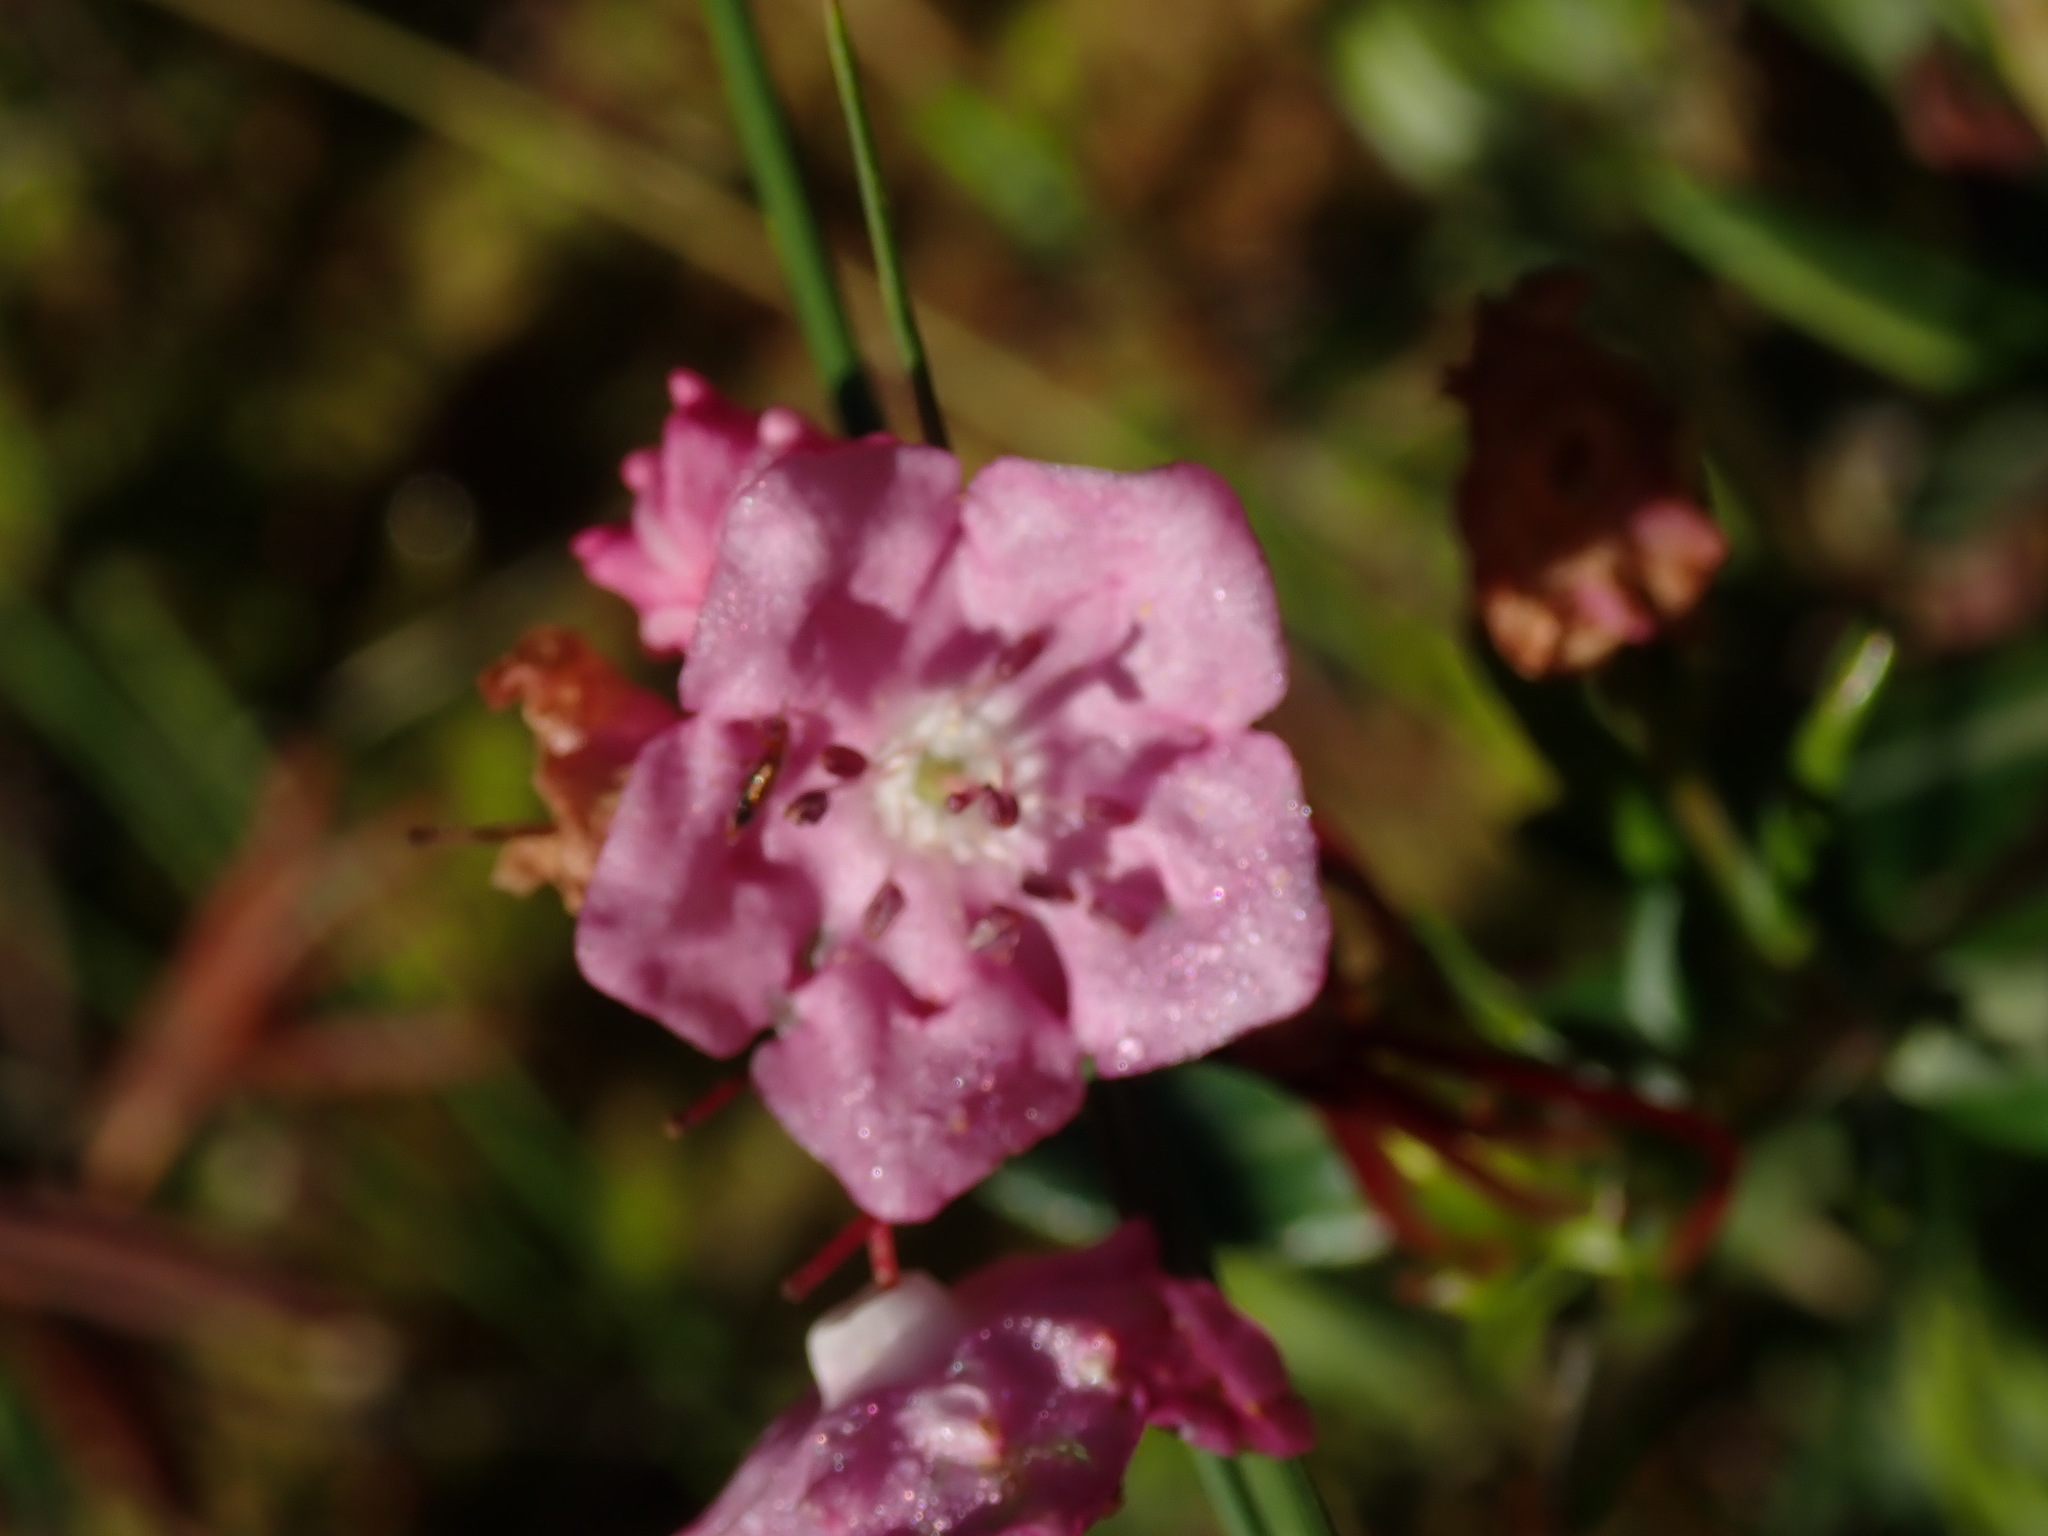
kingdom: Plantae
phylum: Tracheophyta
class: Magnoliopsida
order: Ericales
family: Ericaceae
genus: Kalmia
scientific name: Kalmia microphylla
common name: Alpine bog laurel
